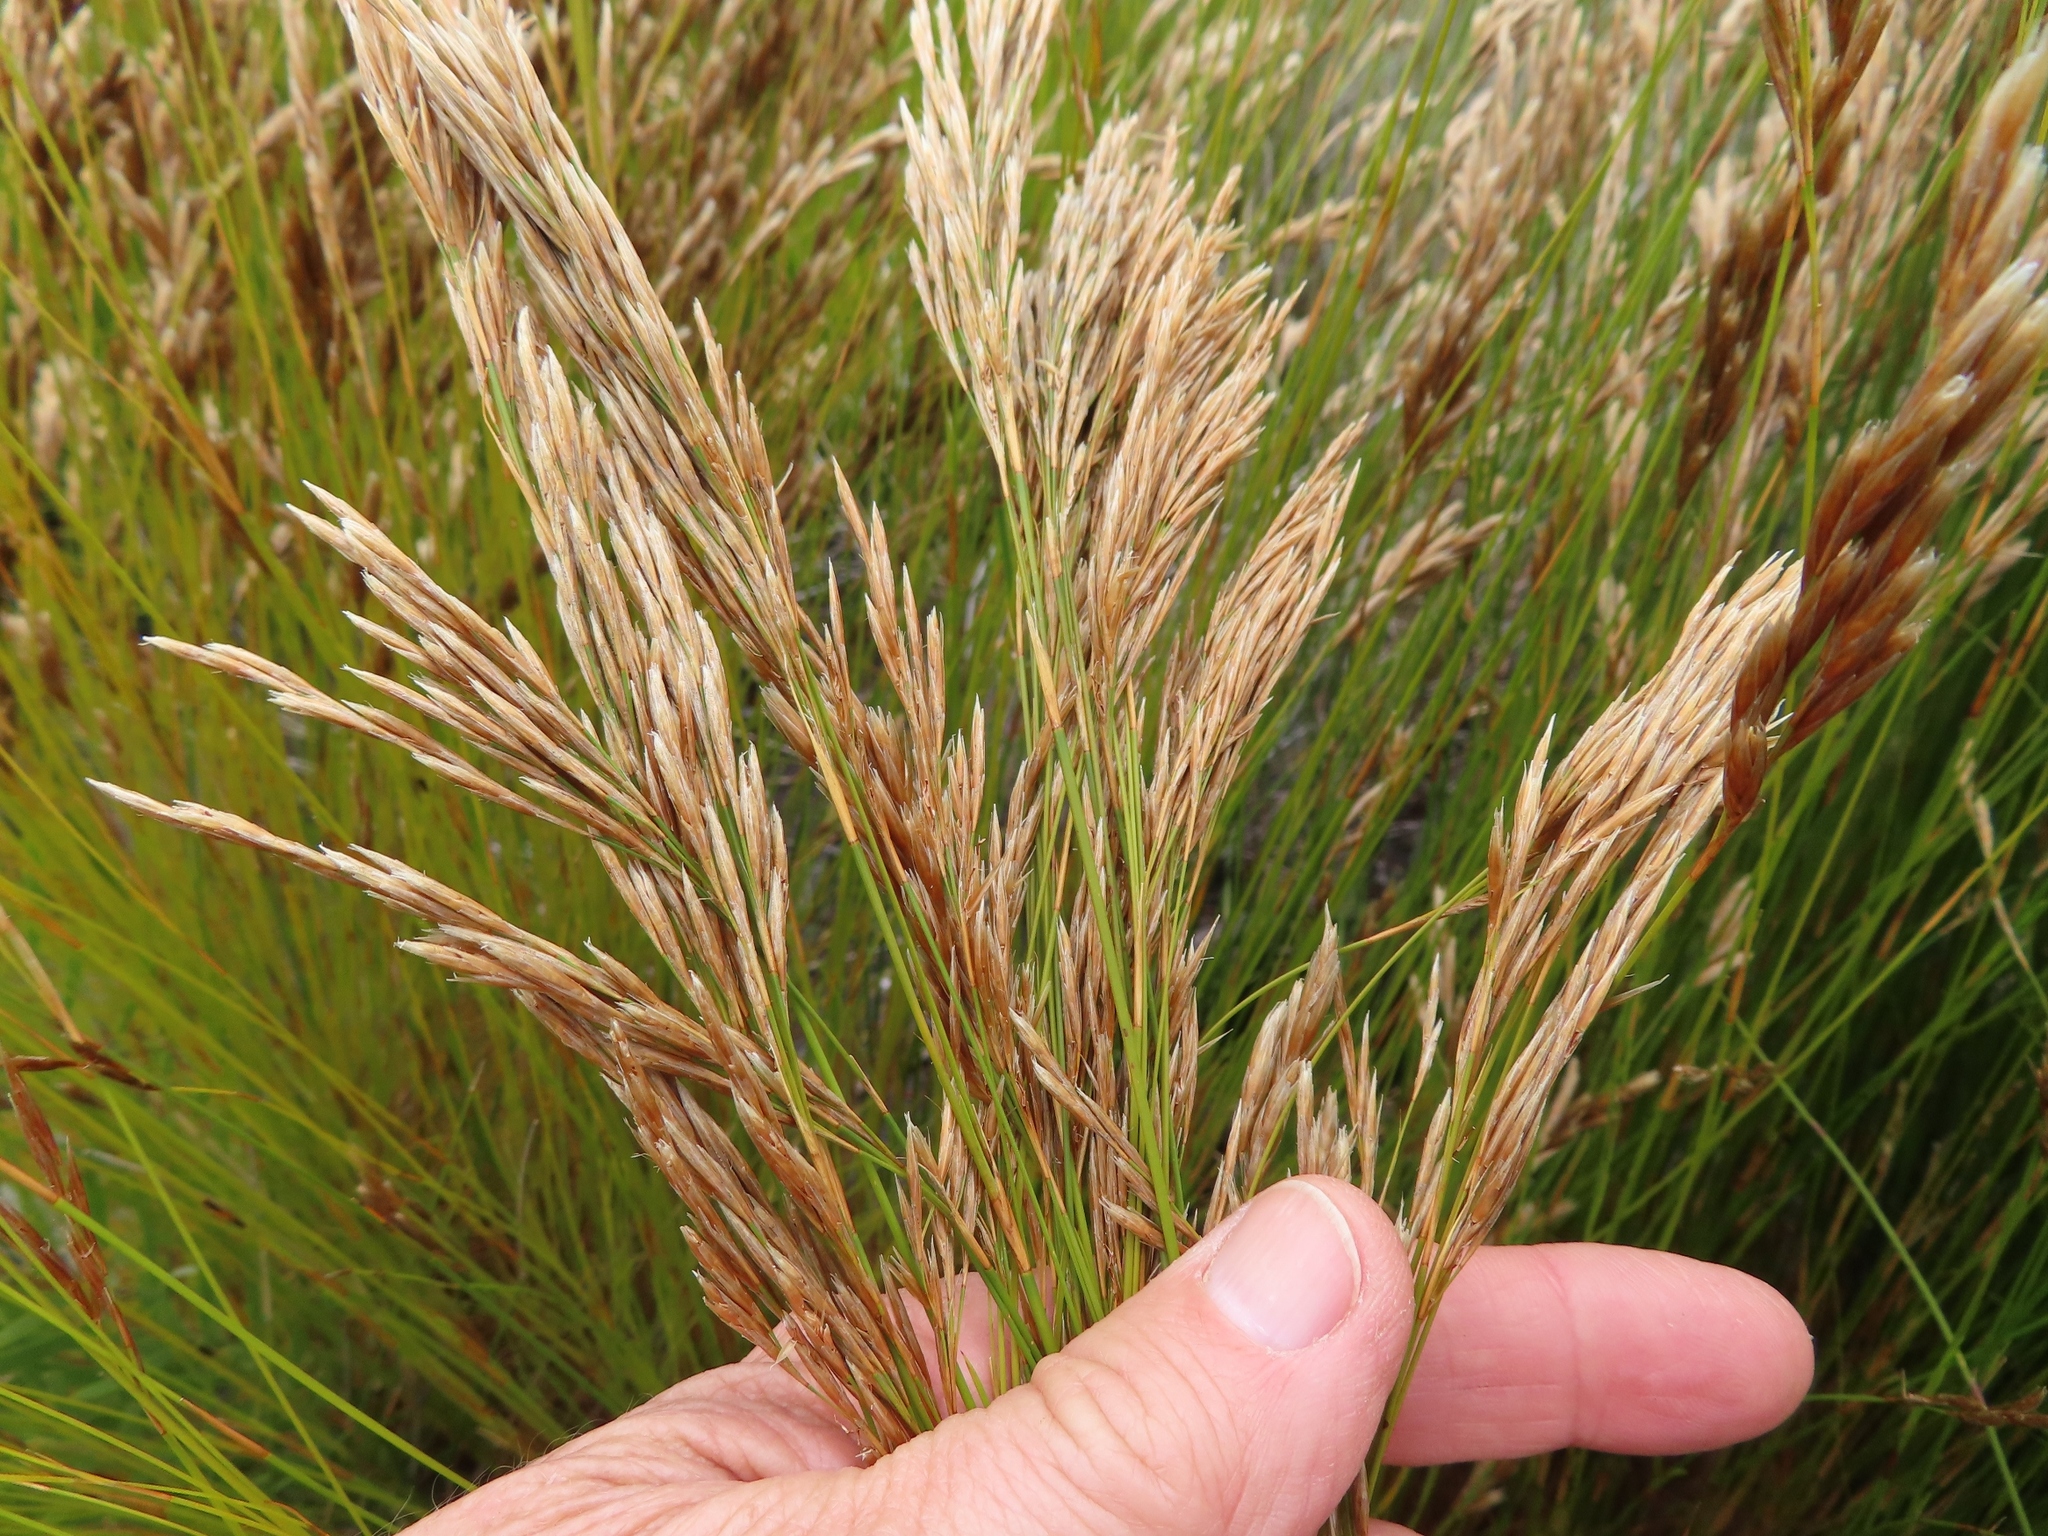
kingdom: Plantae
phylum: Tracheophyta
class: Liliopsida
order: Poales
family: Restionaceae
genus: Restio
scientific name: Restio festuciformis
